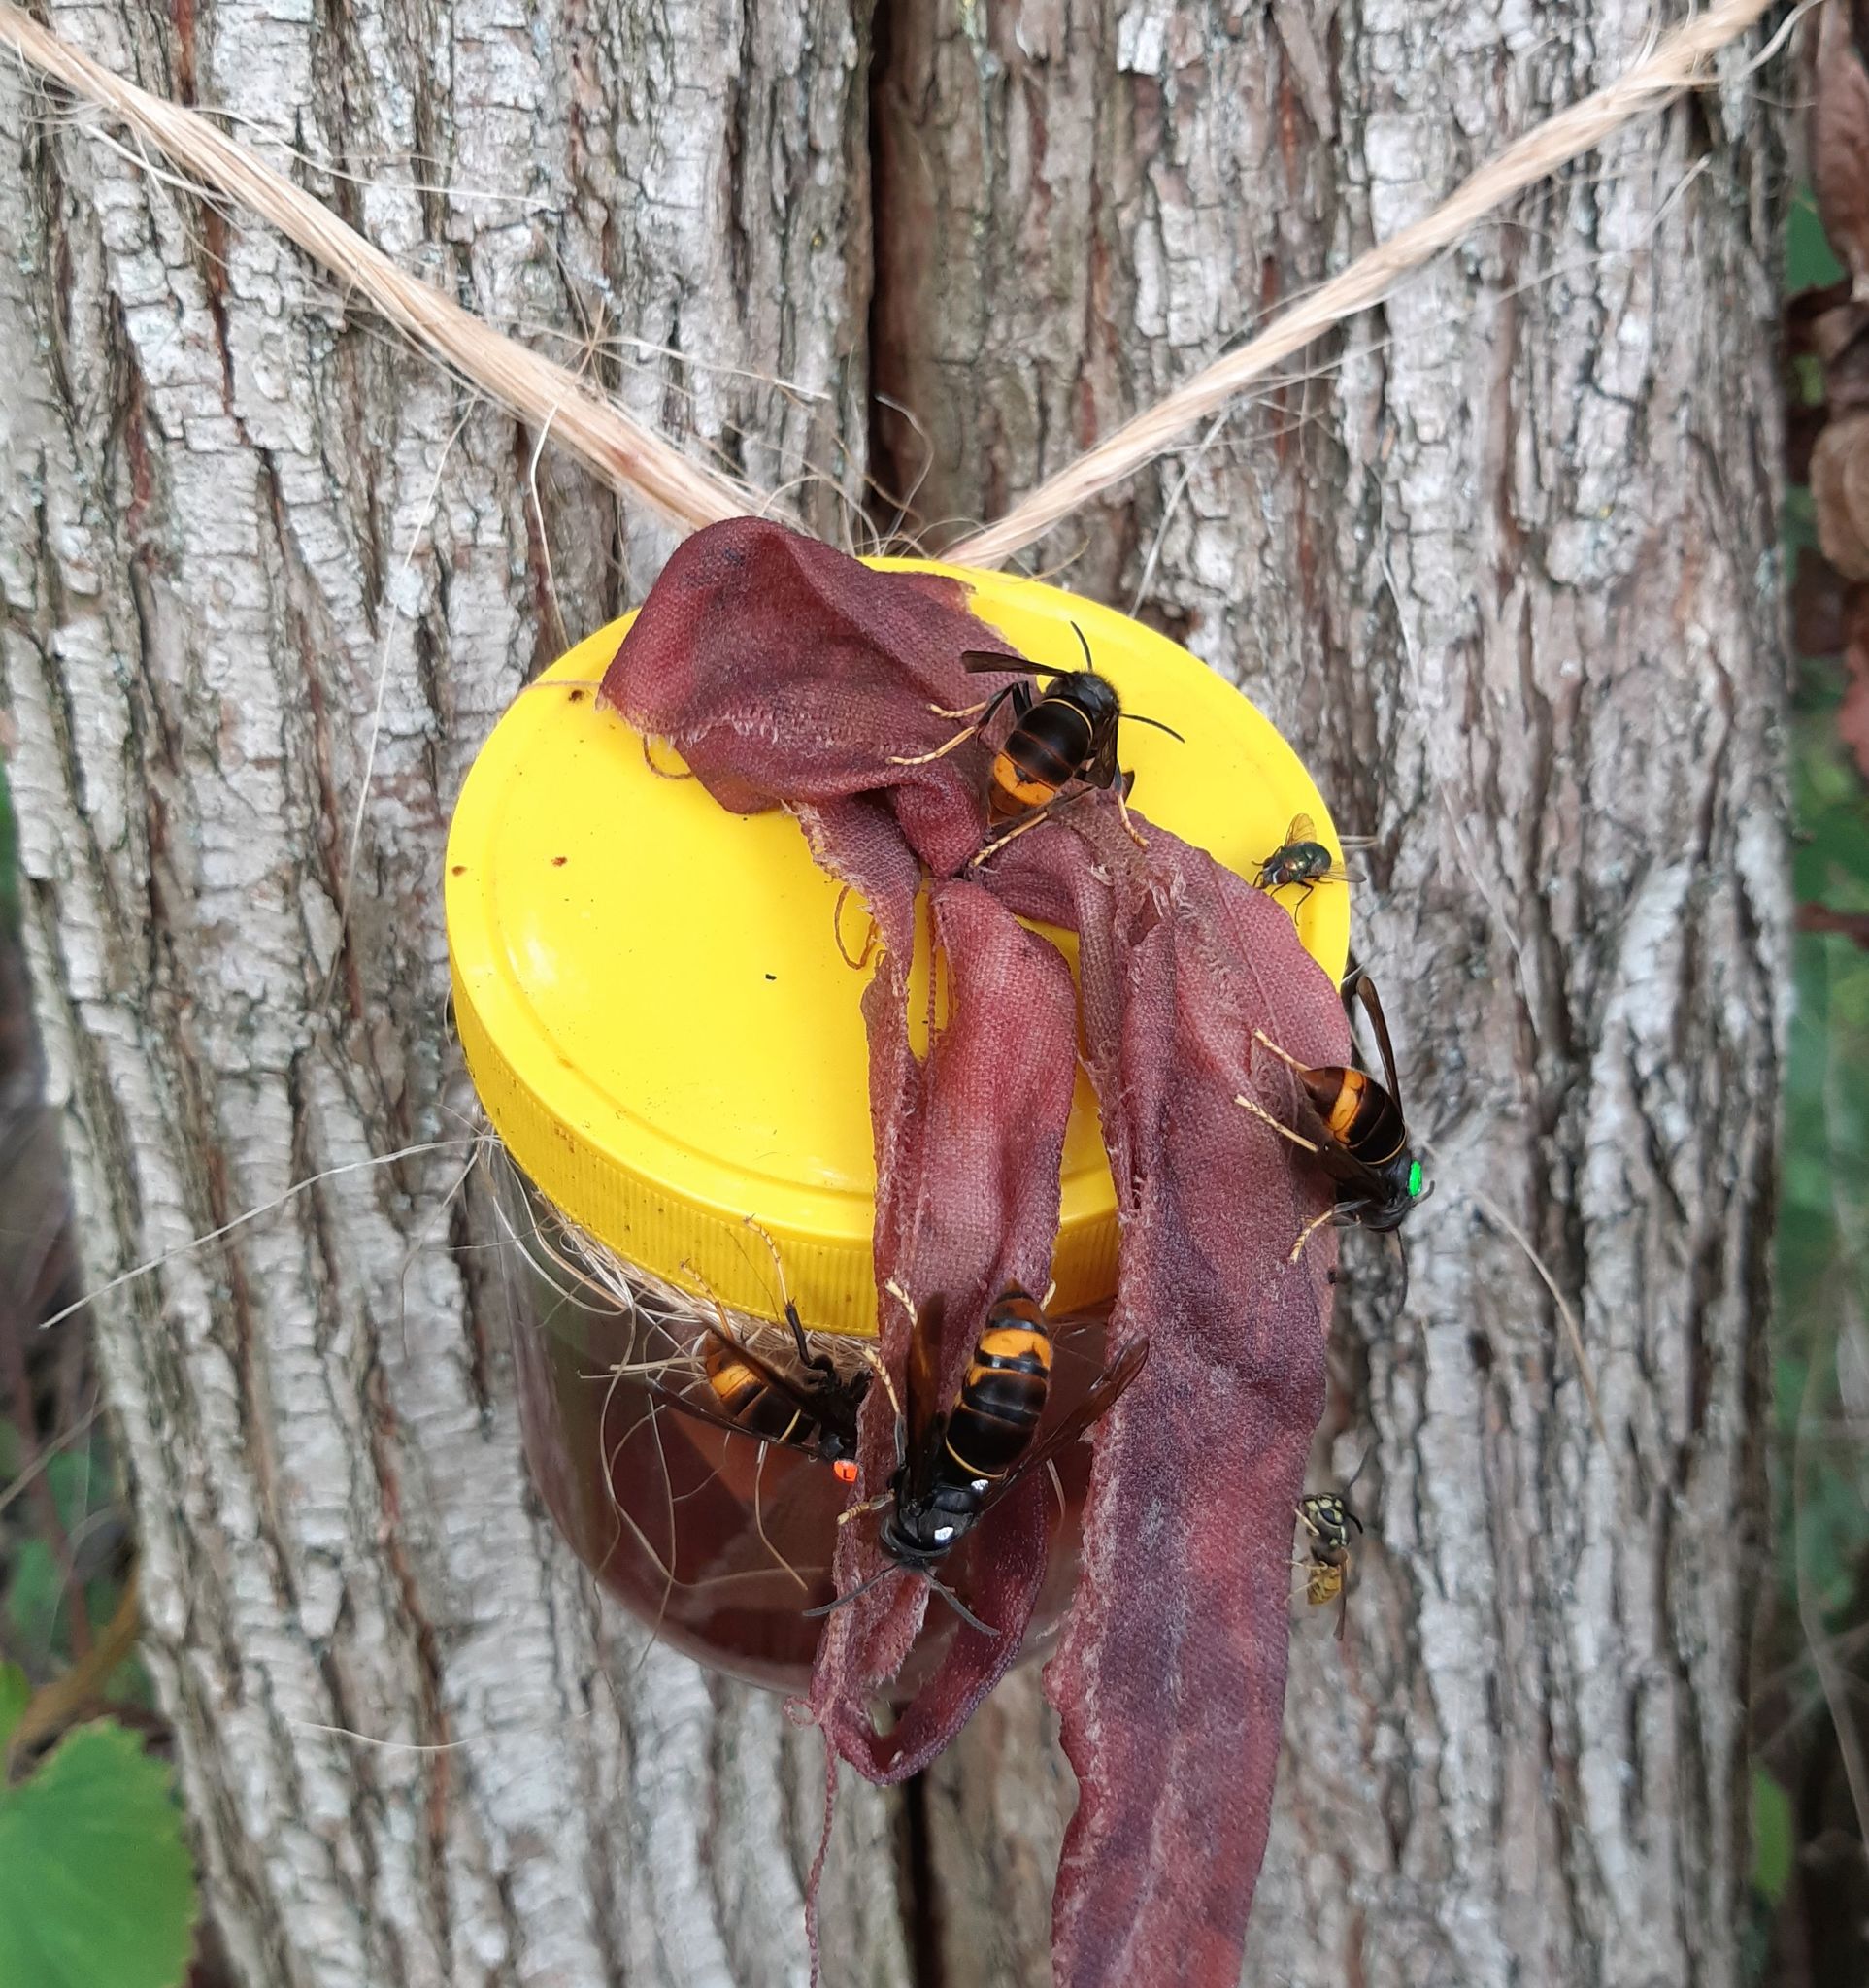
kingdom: Animalia
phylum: Arthropoda
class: Insecta
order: Hymenoptera
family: Vespidae
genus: Vespa
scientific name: Vespa velutina
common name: Asian hornet
